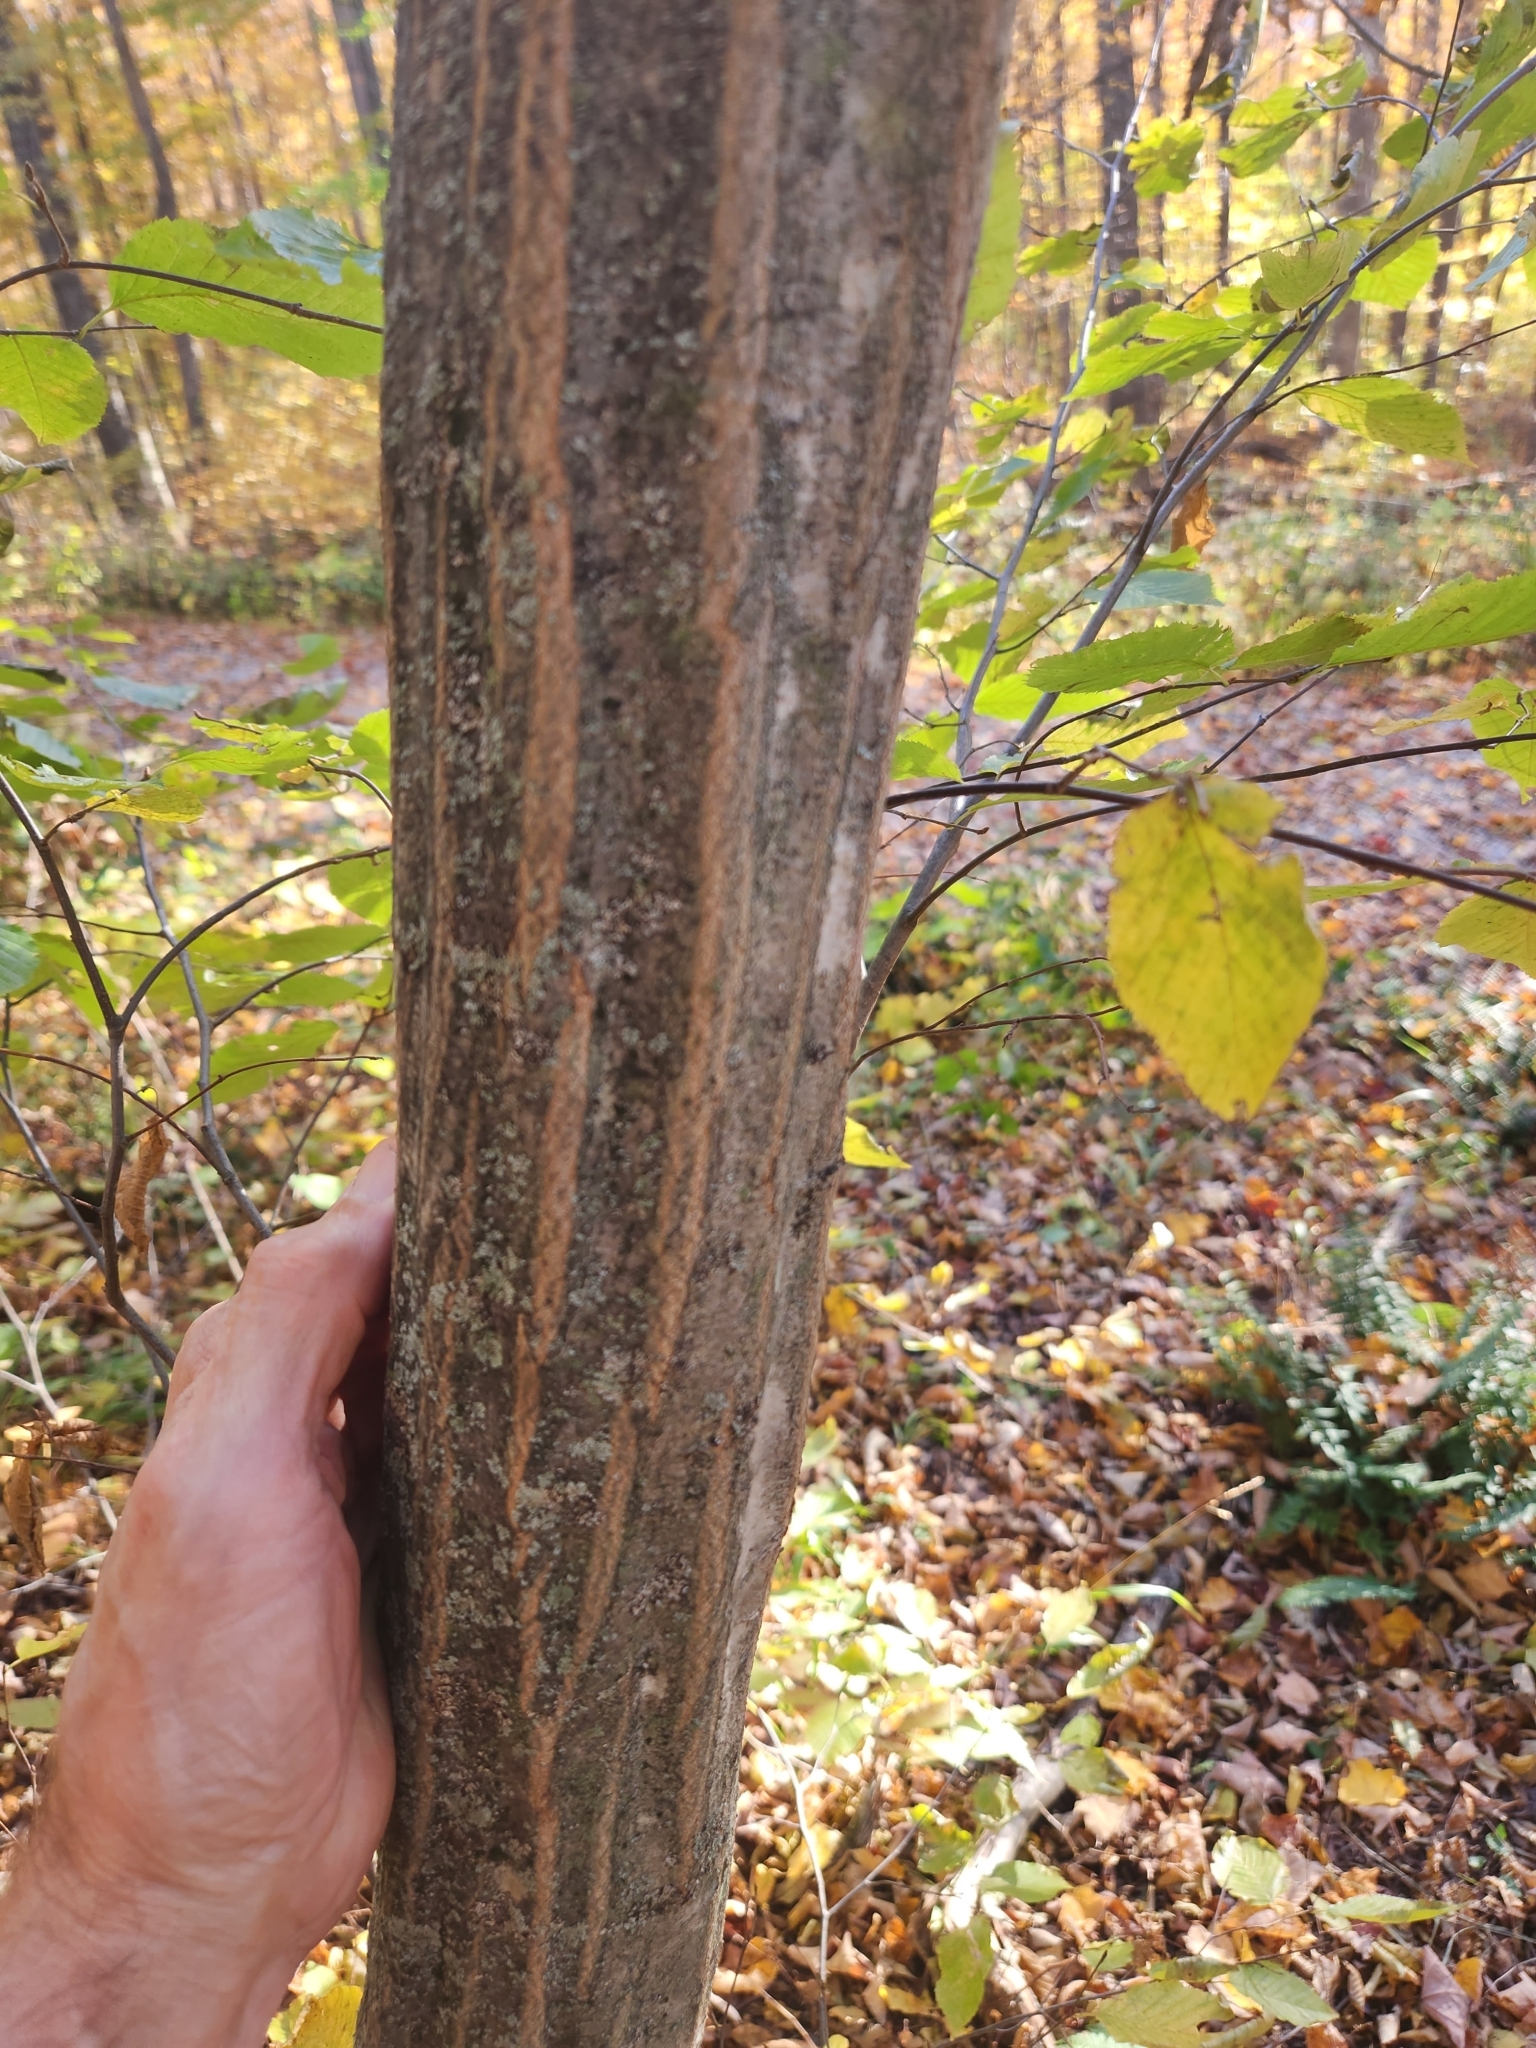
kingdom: Plantae
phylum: Tracheophyta
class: Magnoliopsida
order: Fagales
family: Betulaceae
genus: Carpinus
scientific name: Carpinus caroliniana
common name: American hornbeam
